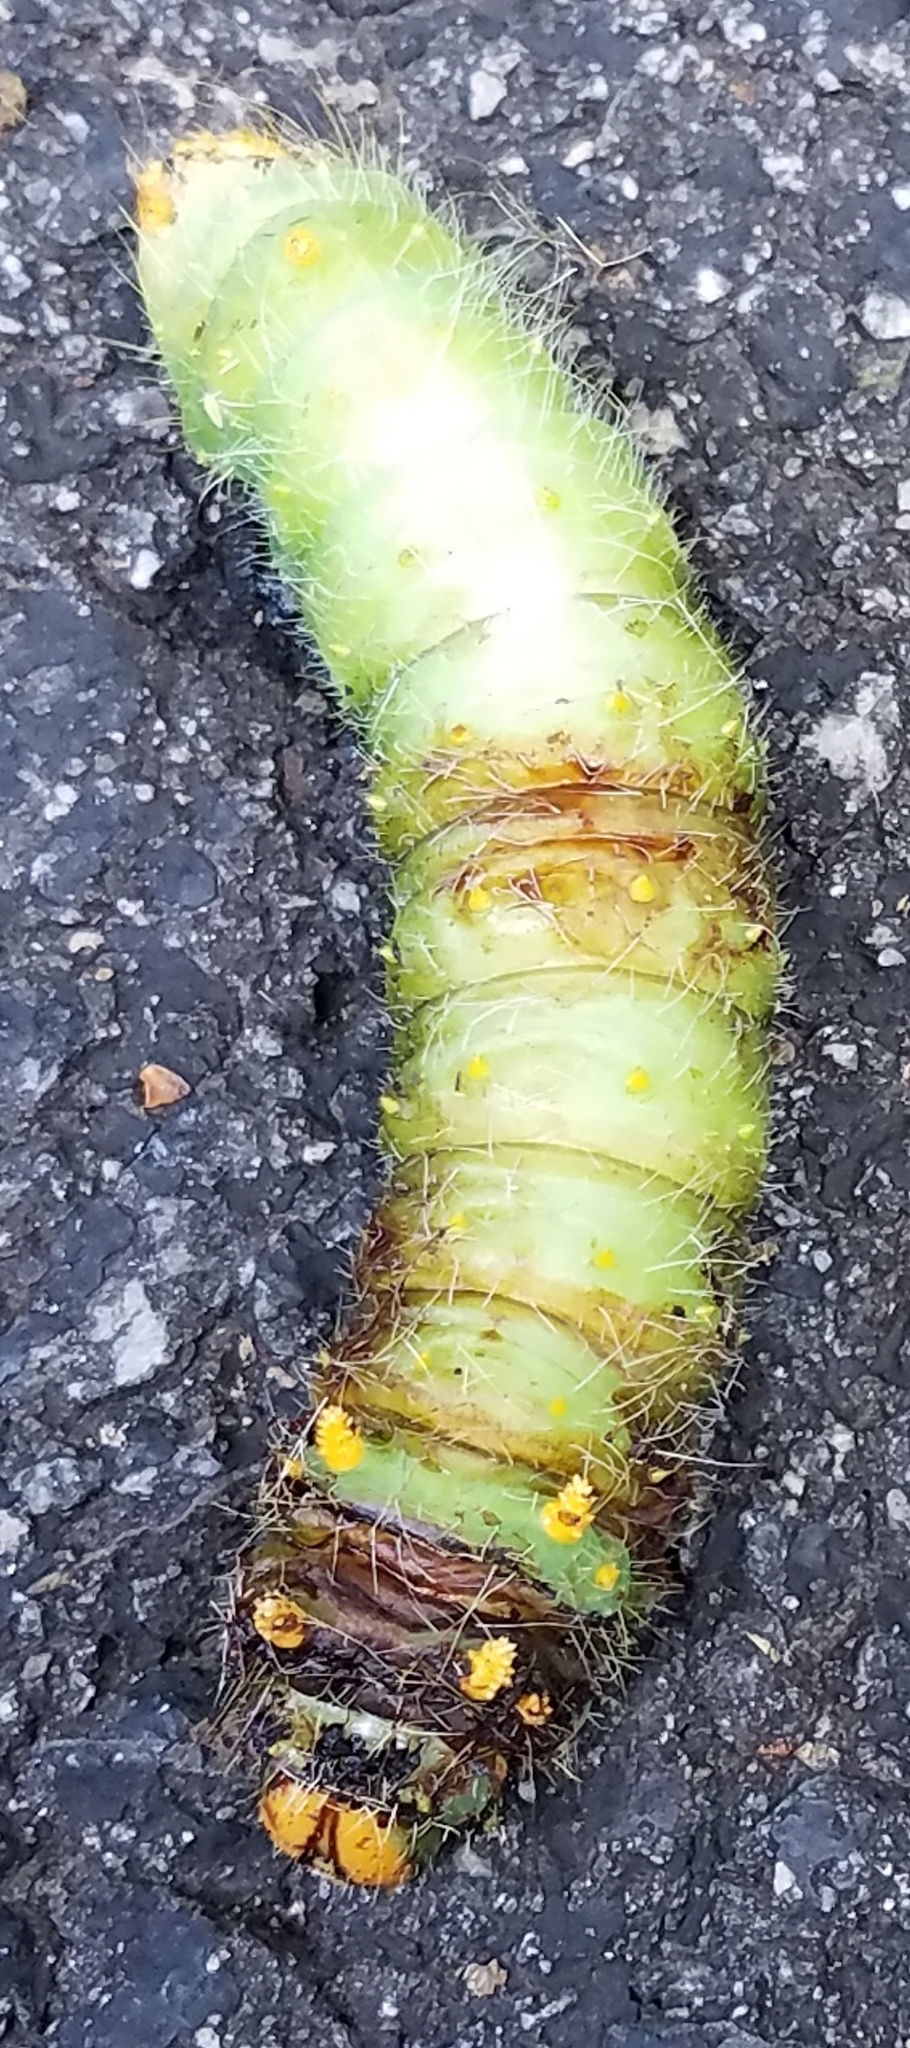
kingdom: Animalia
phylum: Arthropoda
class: Insecta
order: Lepidoptera
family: Saturniidae
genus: Eacles
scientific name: Eacles imperialis
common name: Imperial moth
